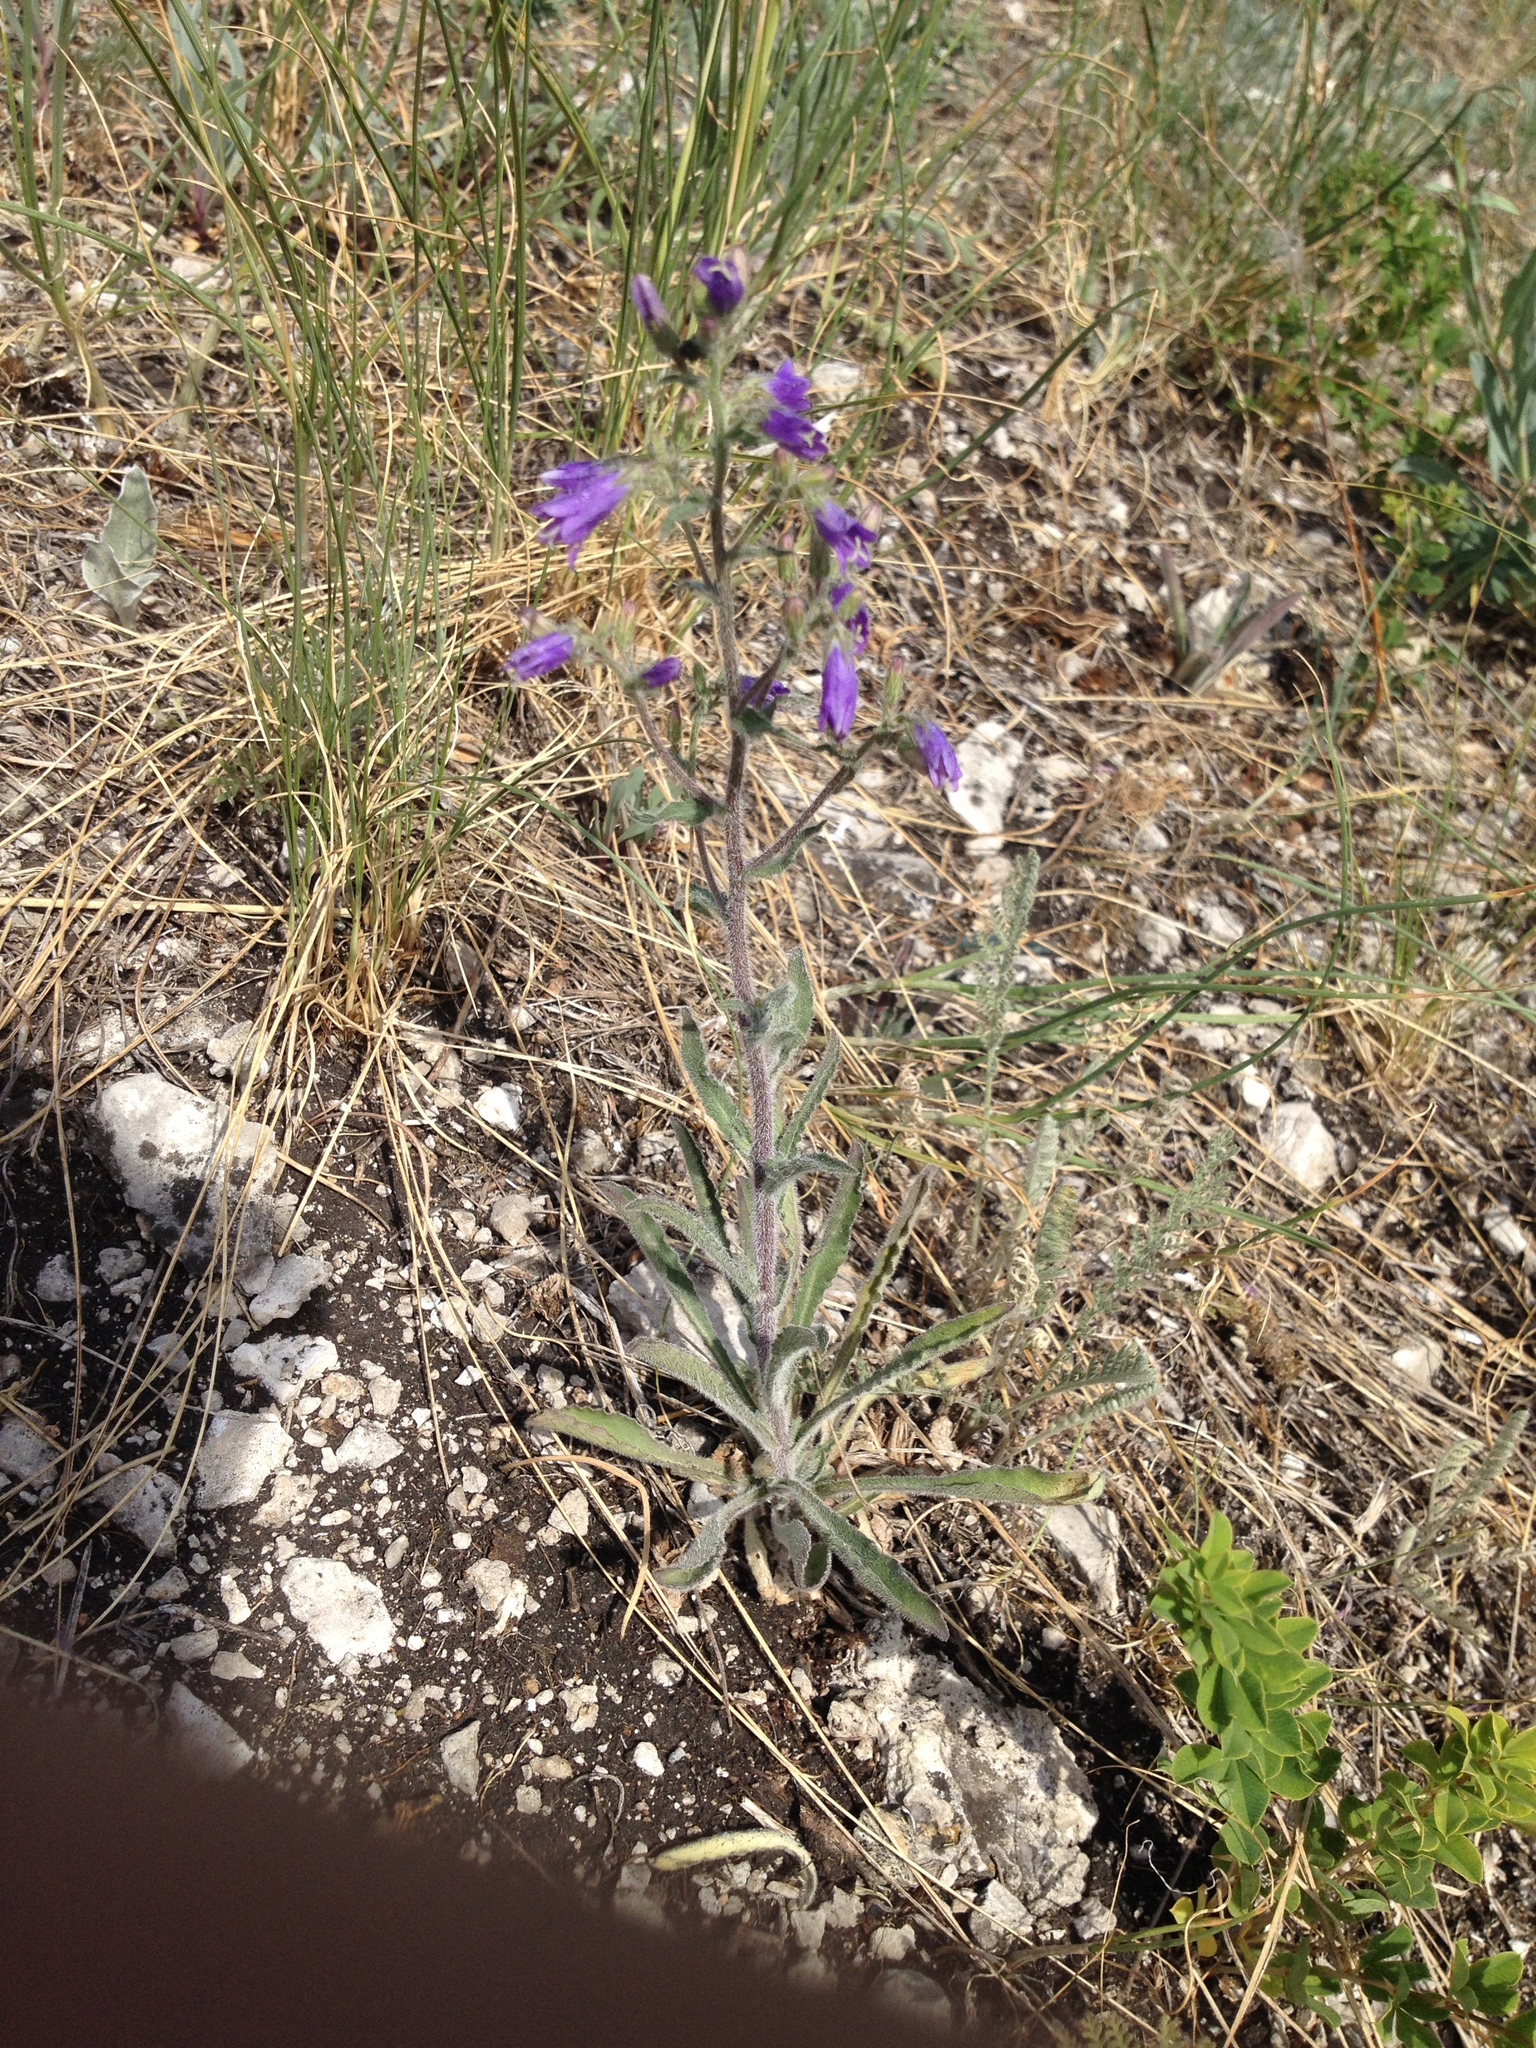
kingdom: Plantae
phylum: Tracheophyta
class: Magnoliopsida
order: Asterales
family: Campanulaceae
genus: Campanula
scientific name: Campanula sibirica
